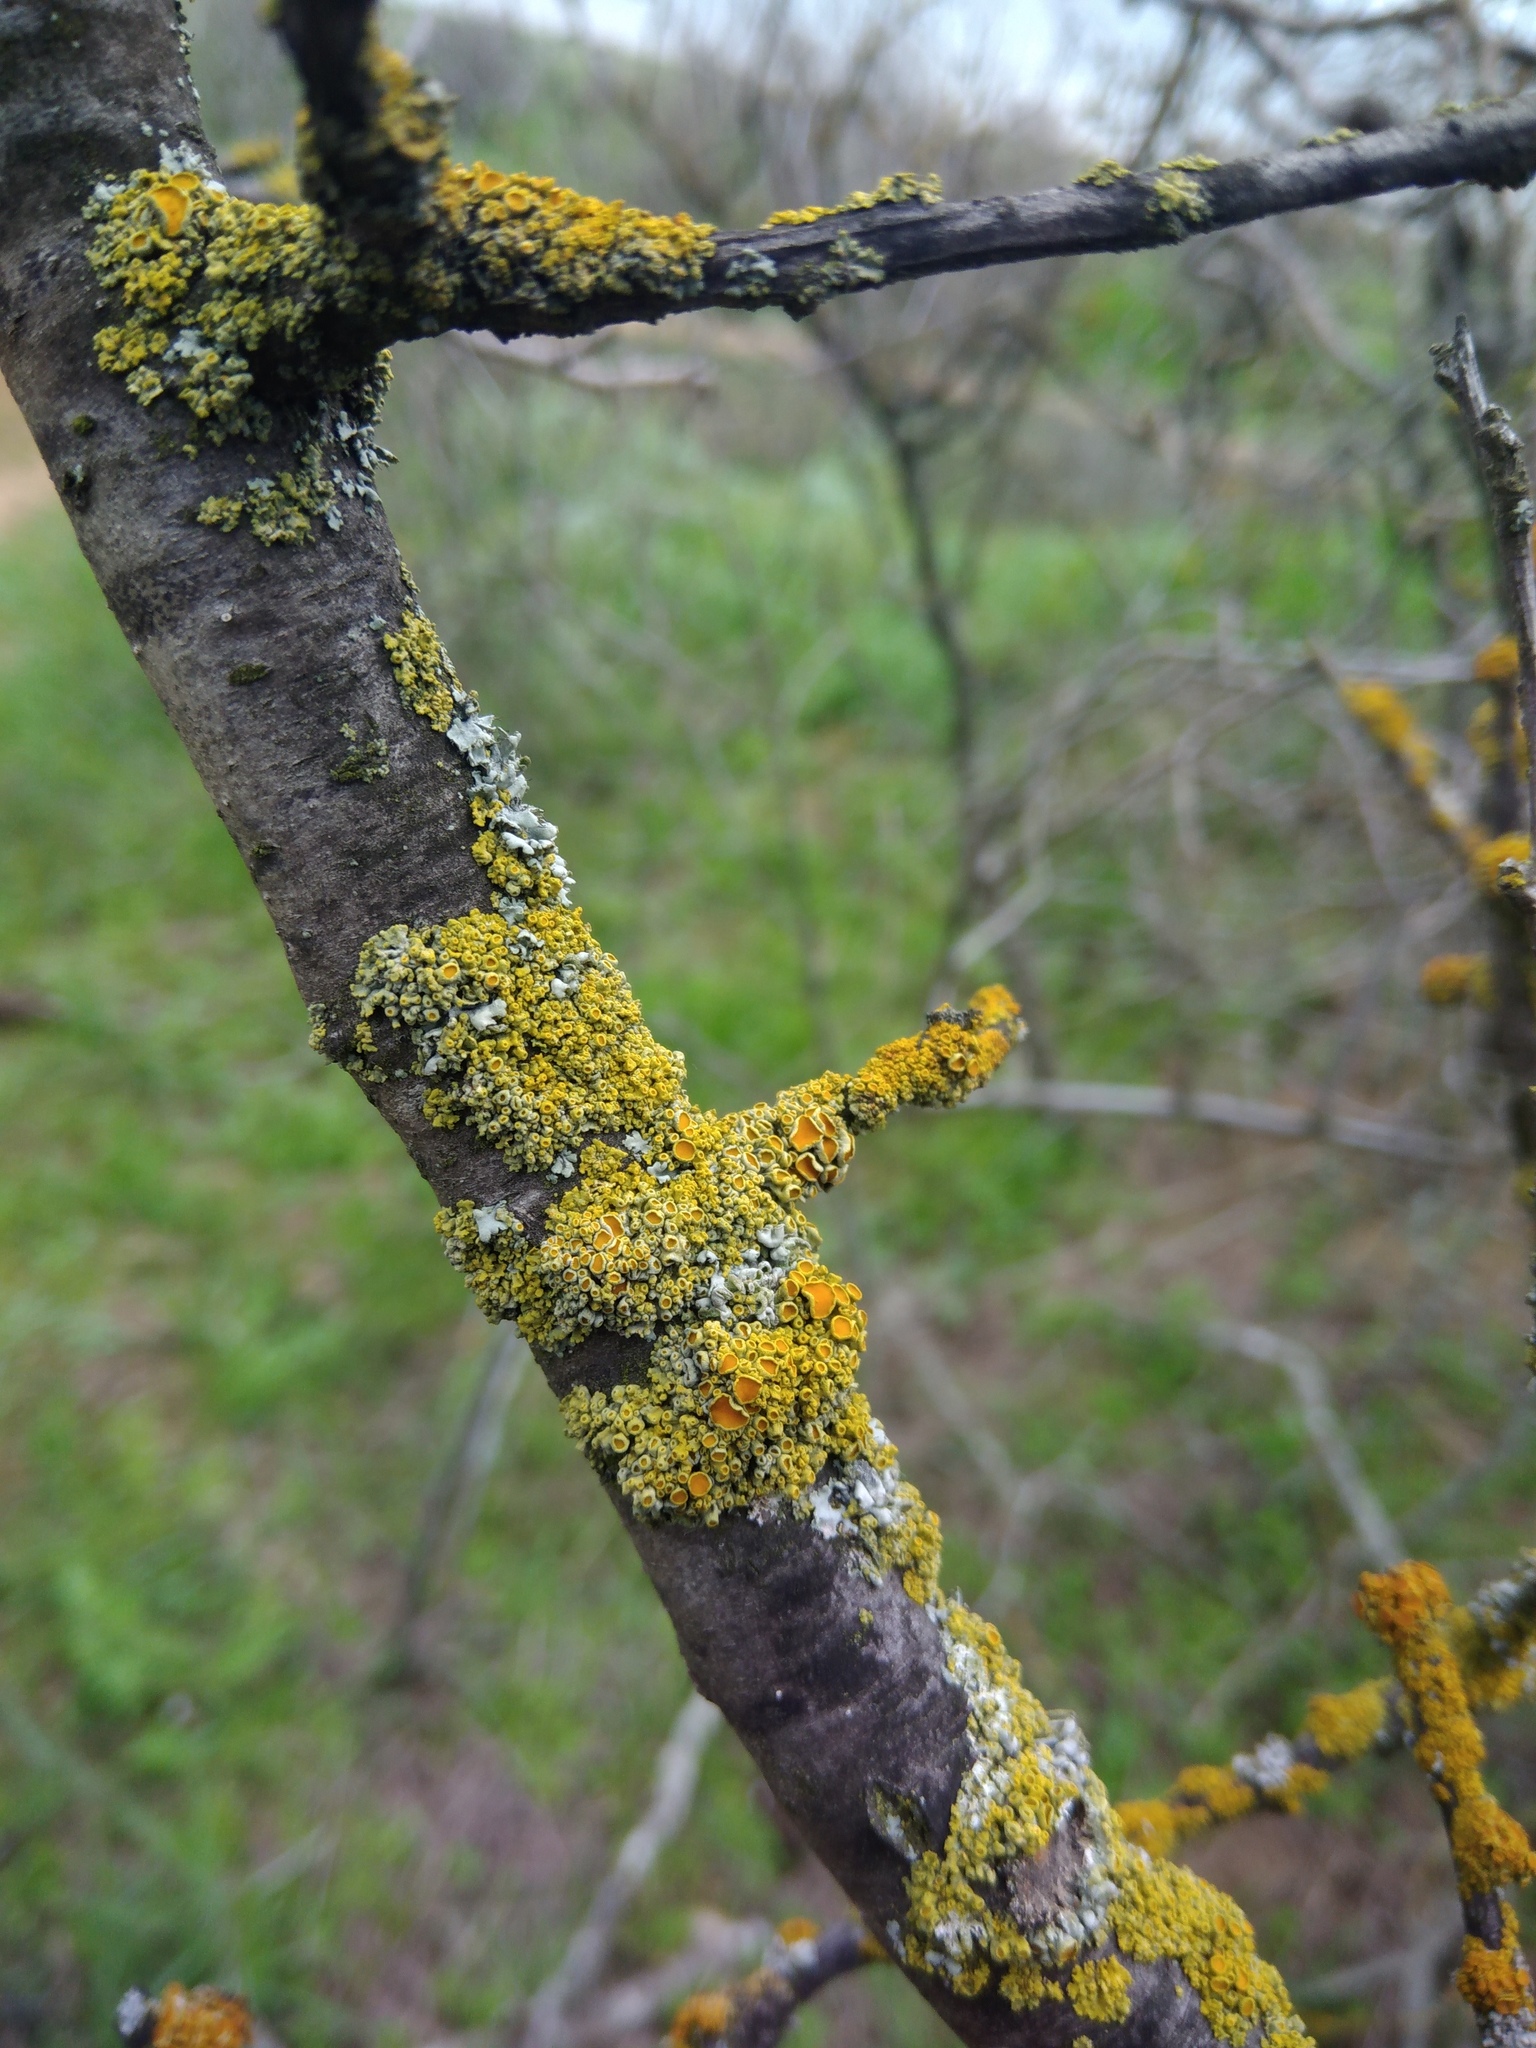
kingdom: Fungi
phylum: Ascomycota
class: Lecanoromycetes
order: Teloschistales
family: Teloschistaceae
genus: Polycauliona
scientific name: Polycauliona polycarpa
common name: Pin-cushion sunburst lichen
